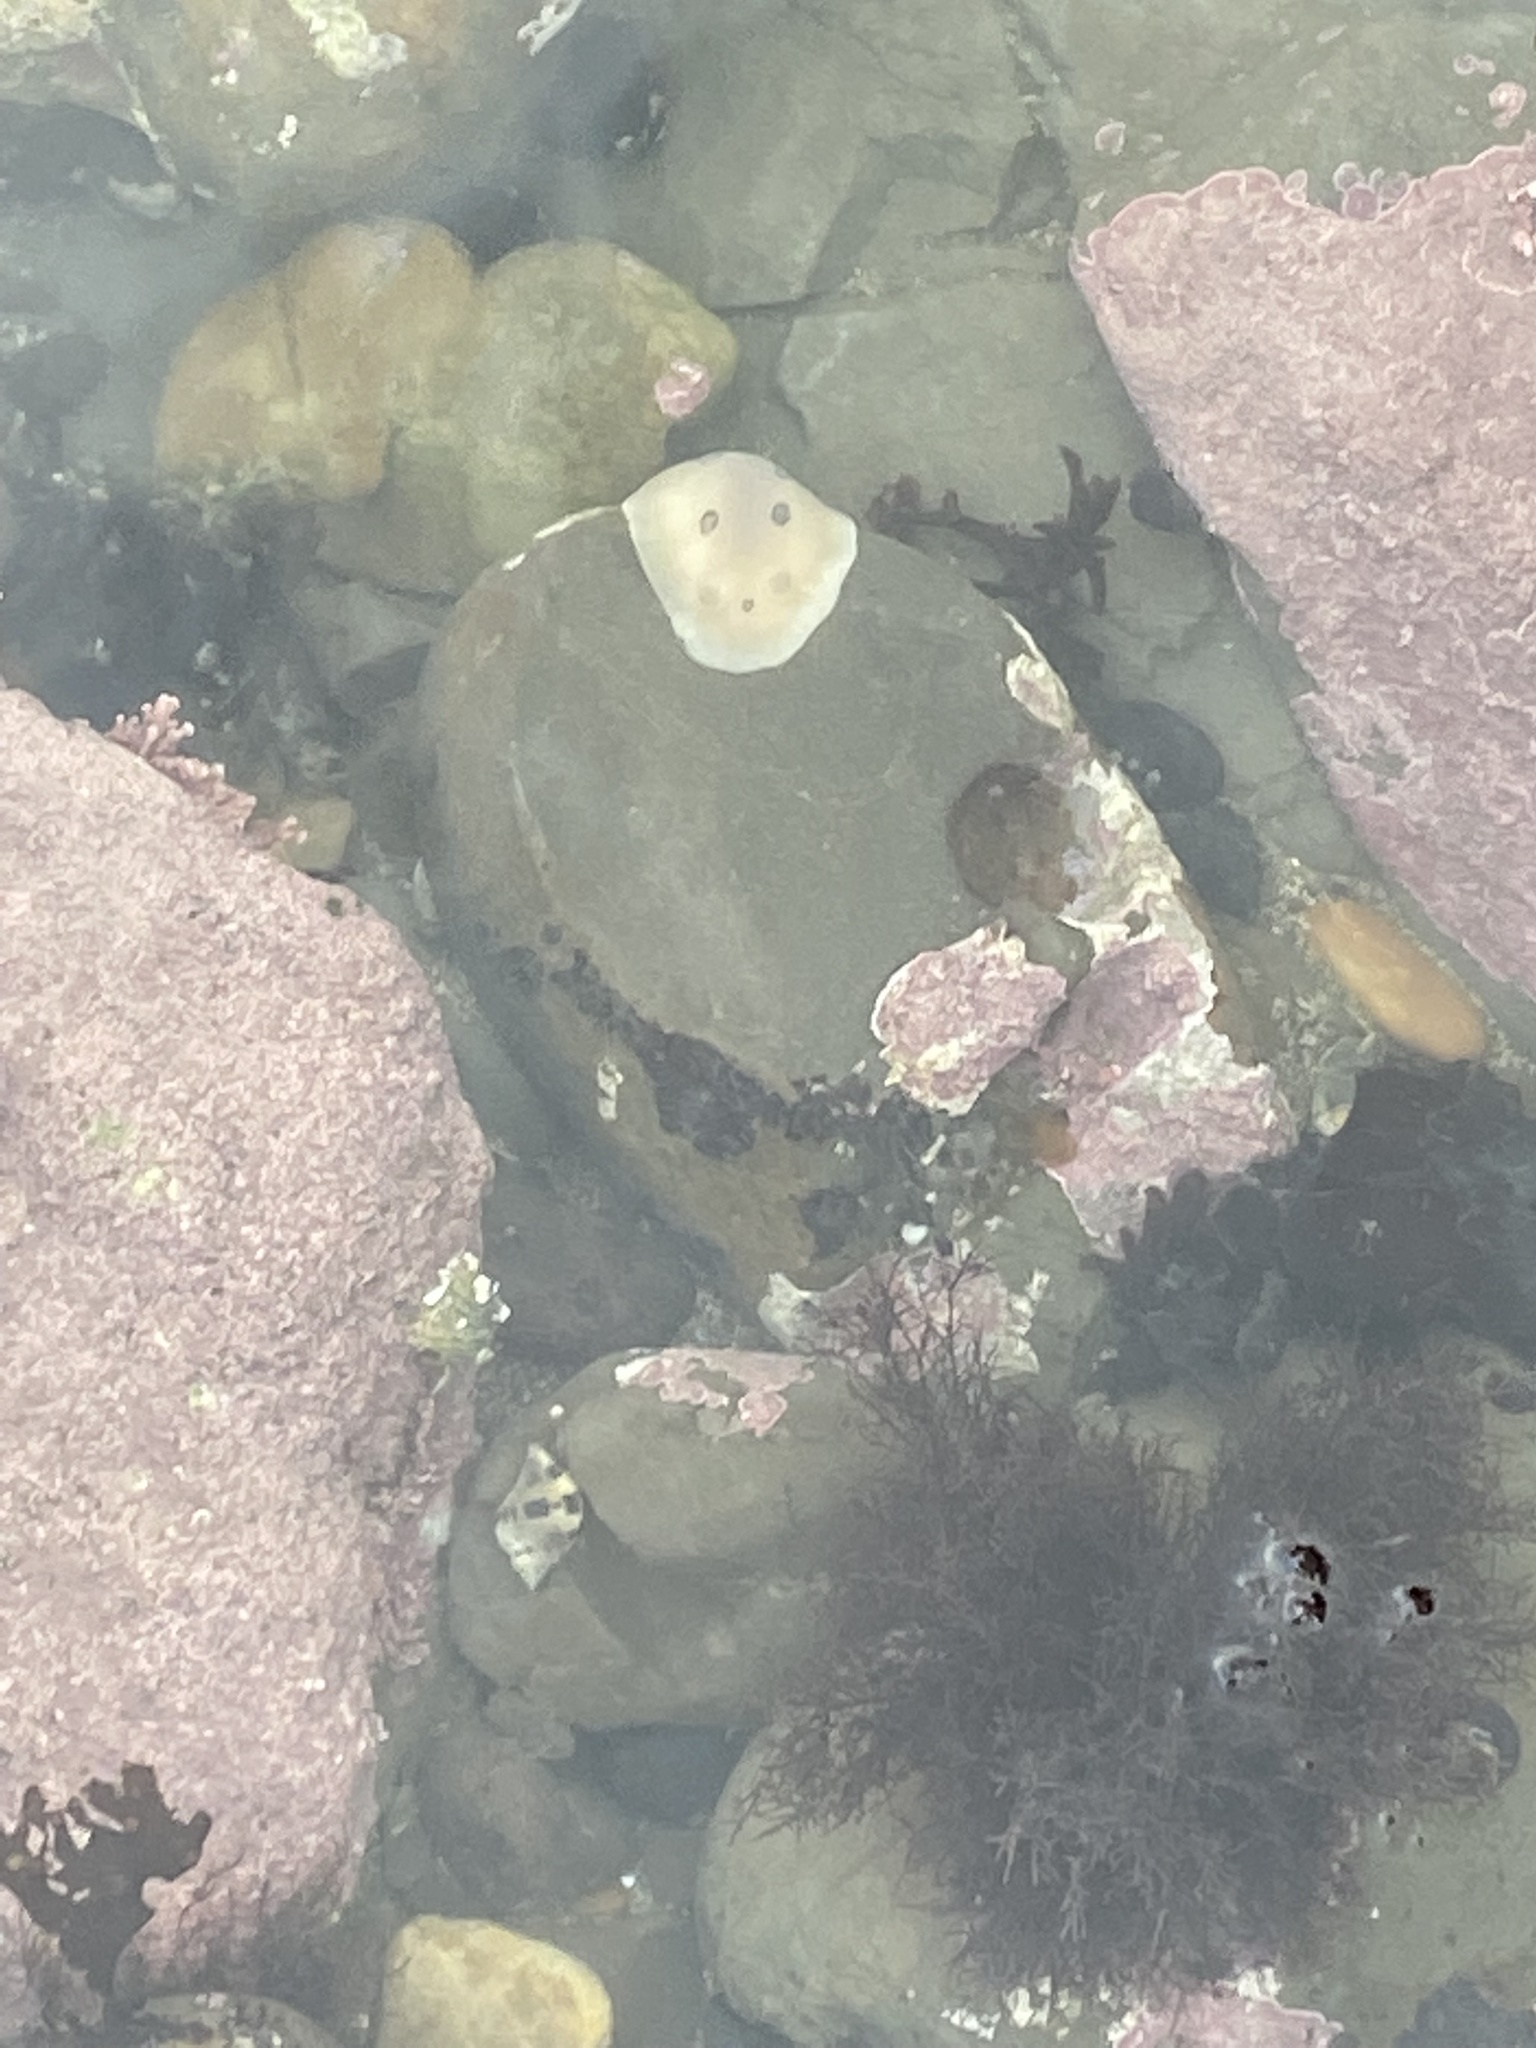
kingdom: Animalia
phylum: Mollusca
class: Gastropoda
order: Nudibranchia
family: Discodorididae
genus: Diaulula
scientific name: Diaulula sandiegensis
